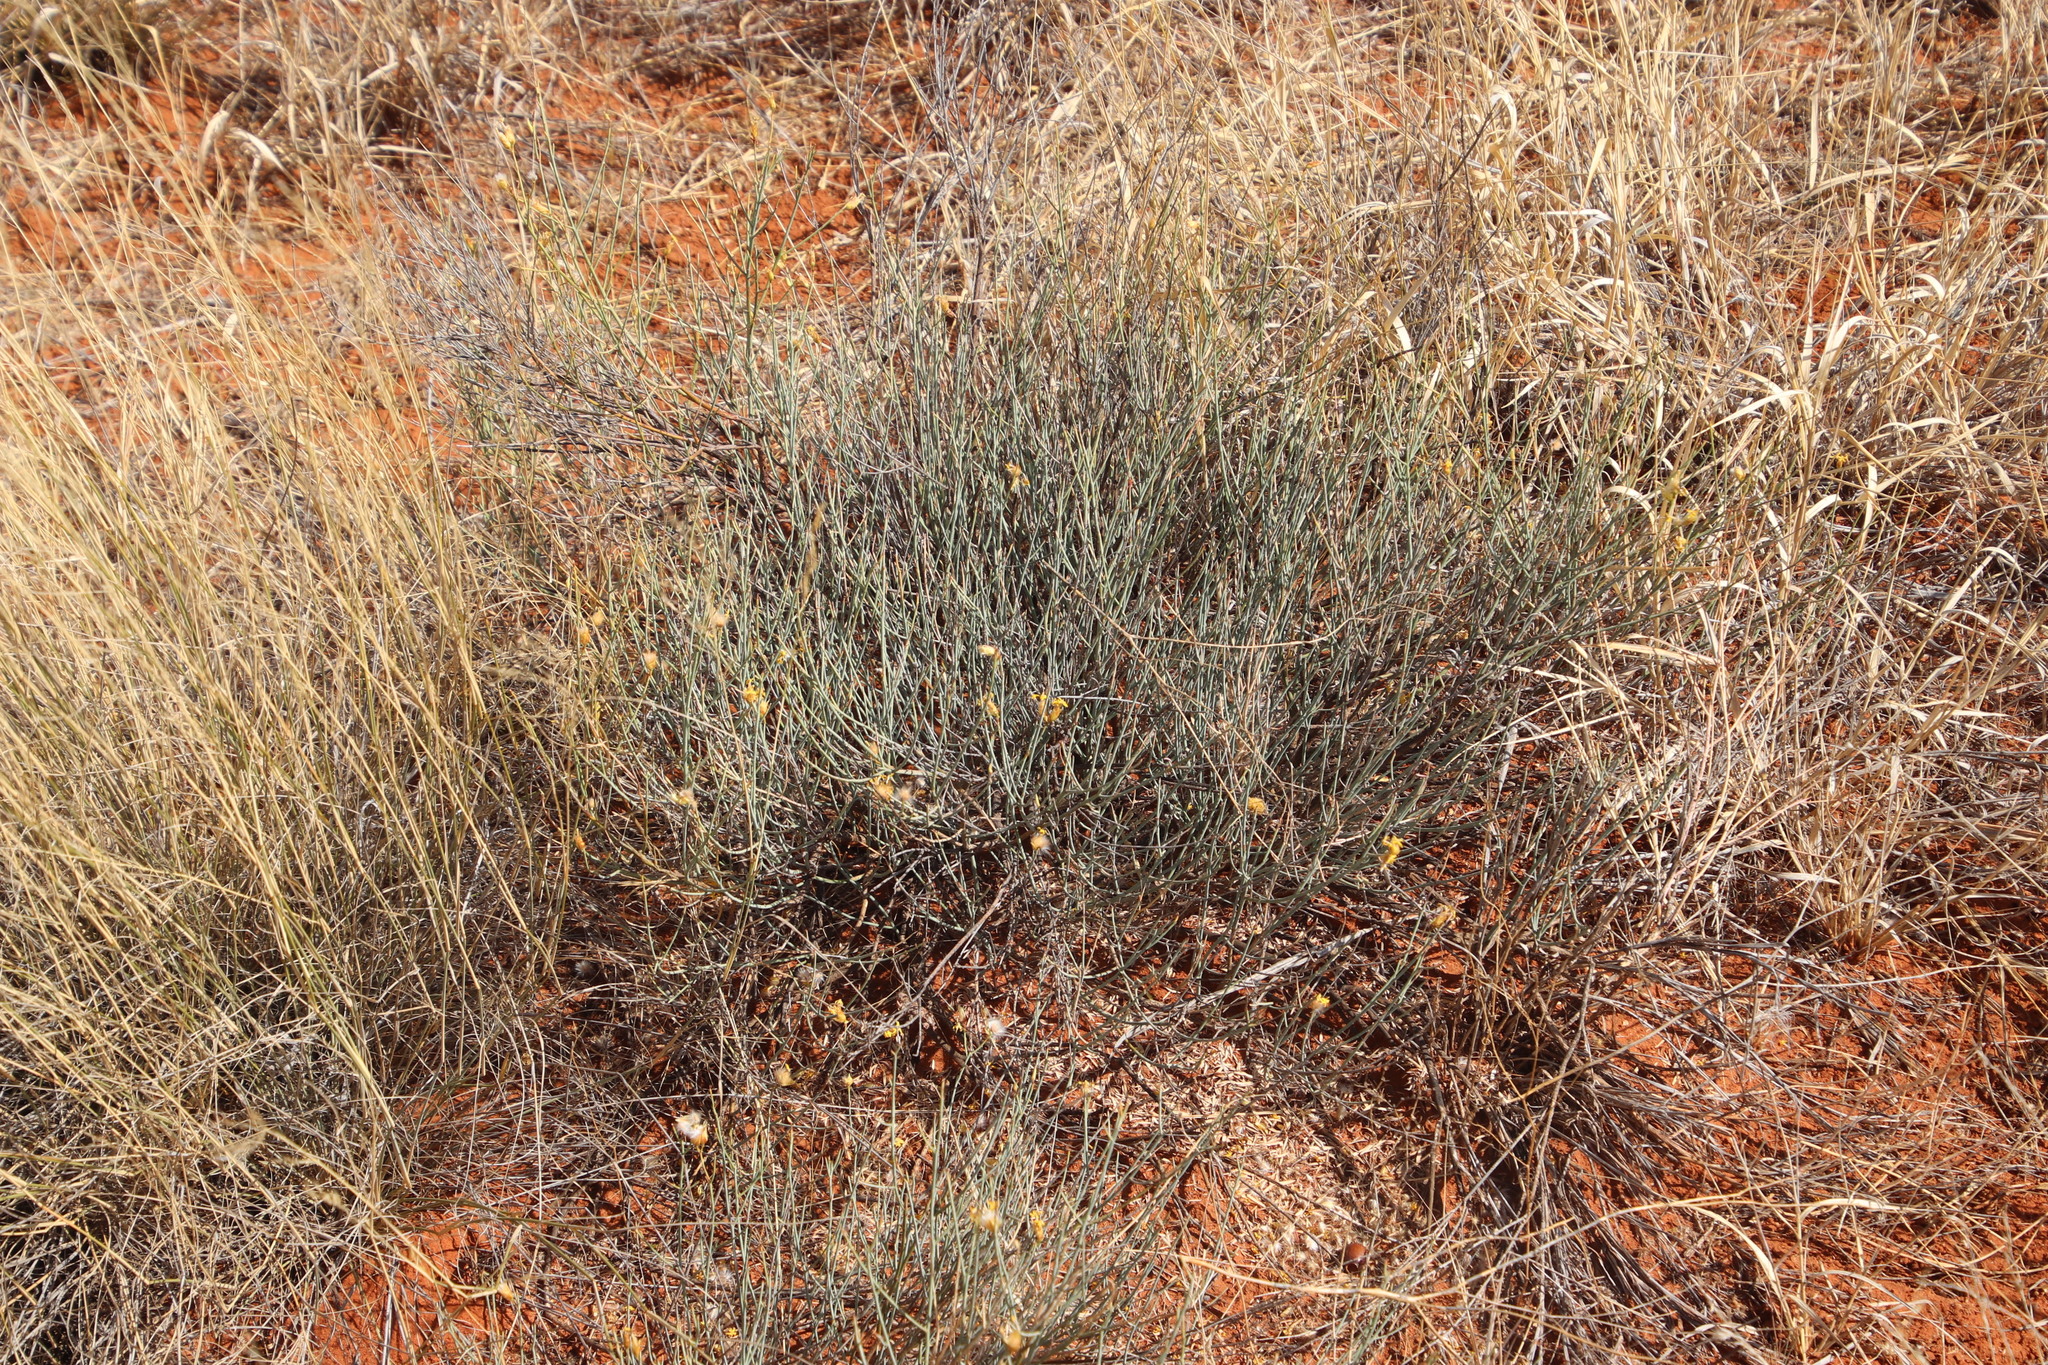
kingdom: Plantae
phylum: Tracheophyta
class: Magnoliopsida
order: Malvales
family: Thymelaeaceae
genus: Gnidia
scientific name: Gnidia polycephala
